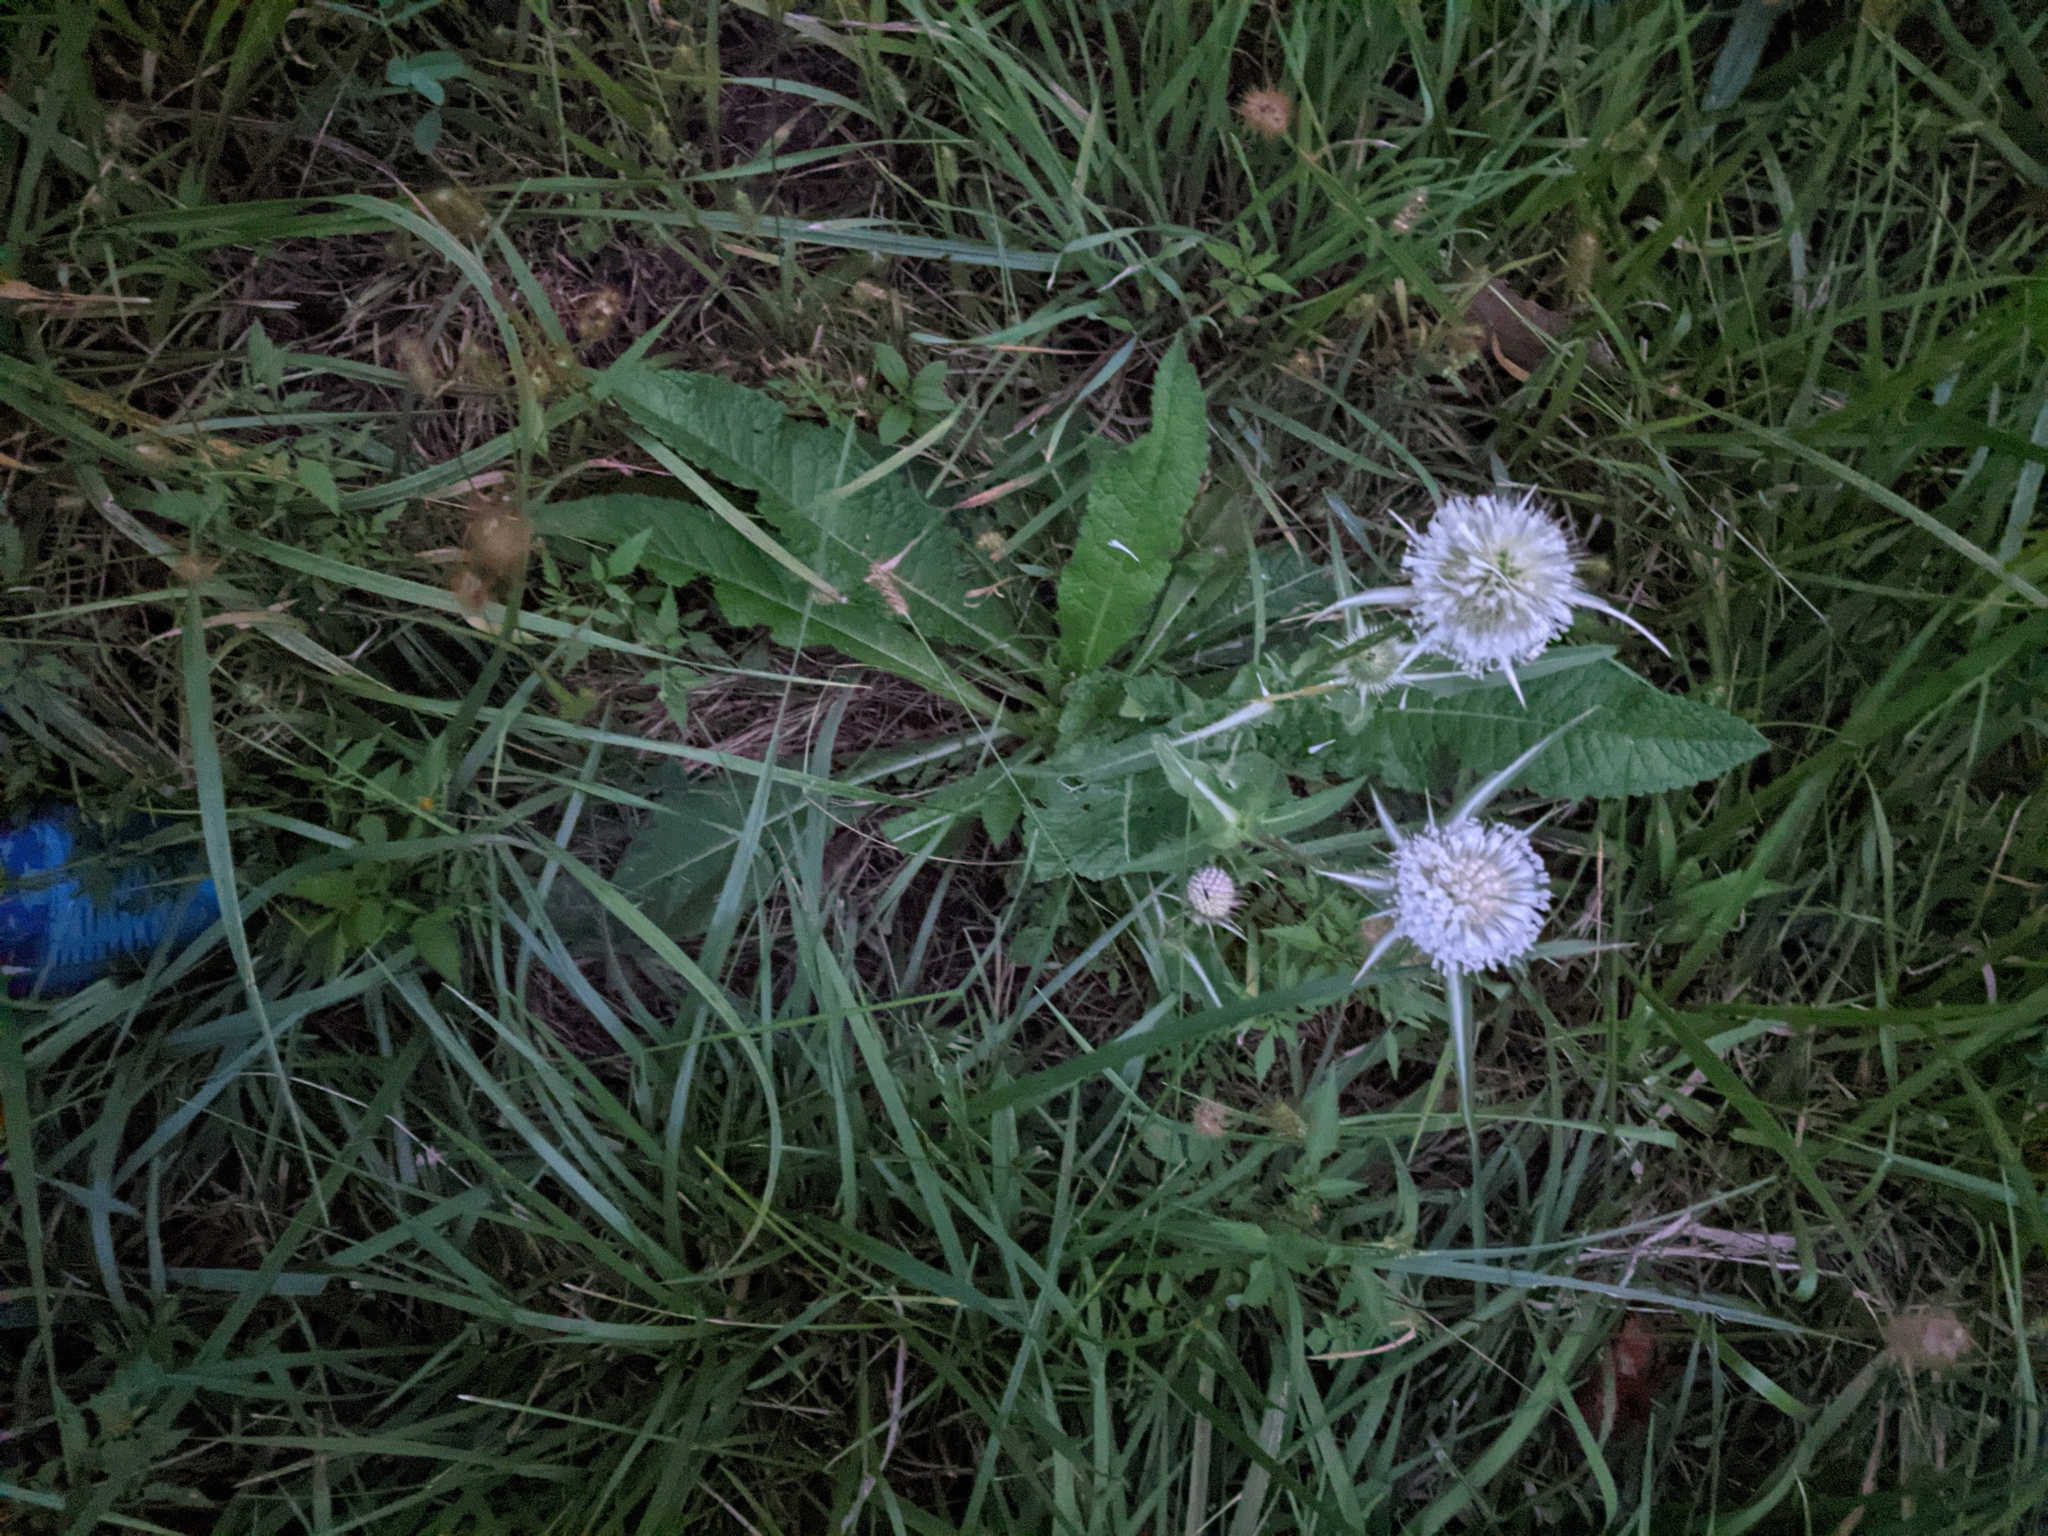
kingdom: Plantae
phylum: Tracheophyta
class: Magnoliopsida
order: Dipsacales
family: Caprifoliaceae
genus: Dipsacus
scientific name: Dipsacus laciniatus
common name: Cut-leaved teasel
